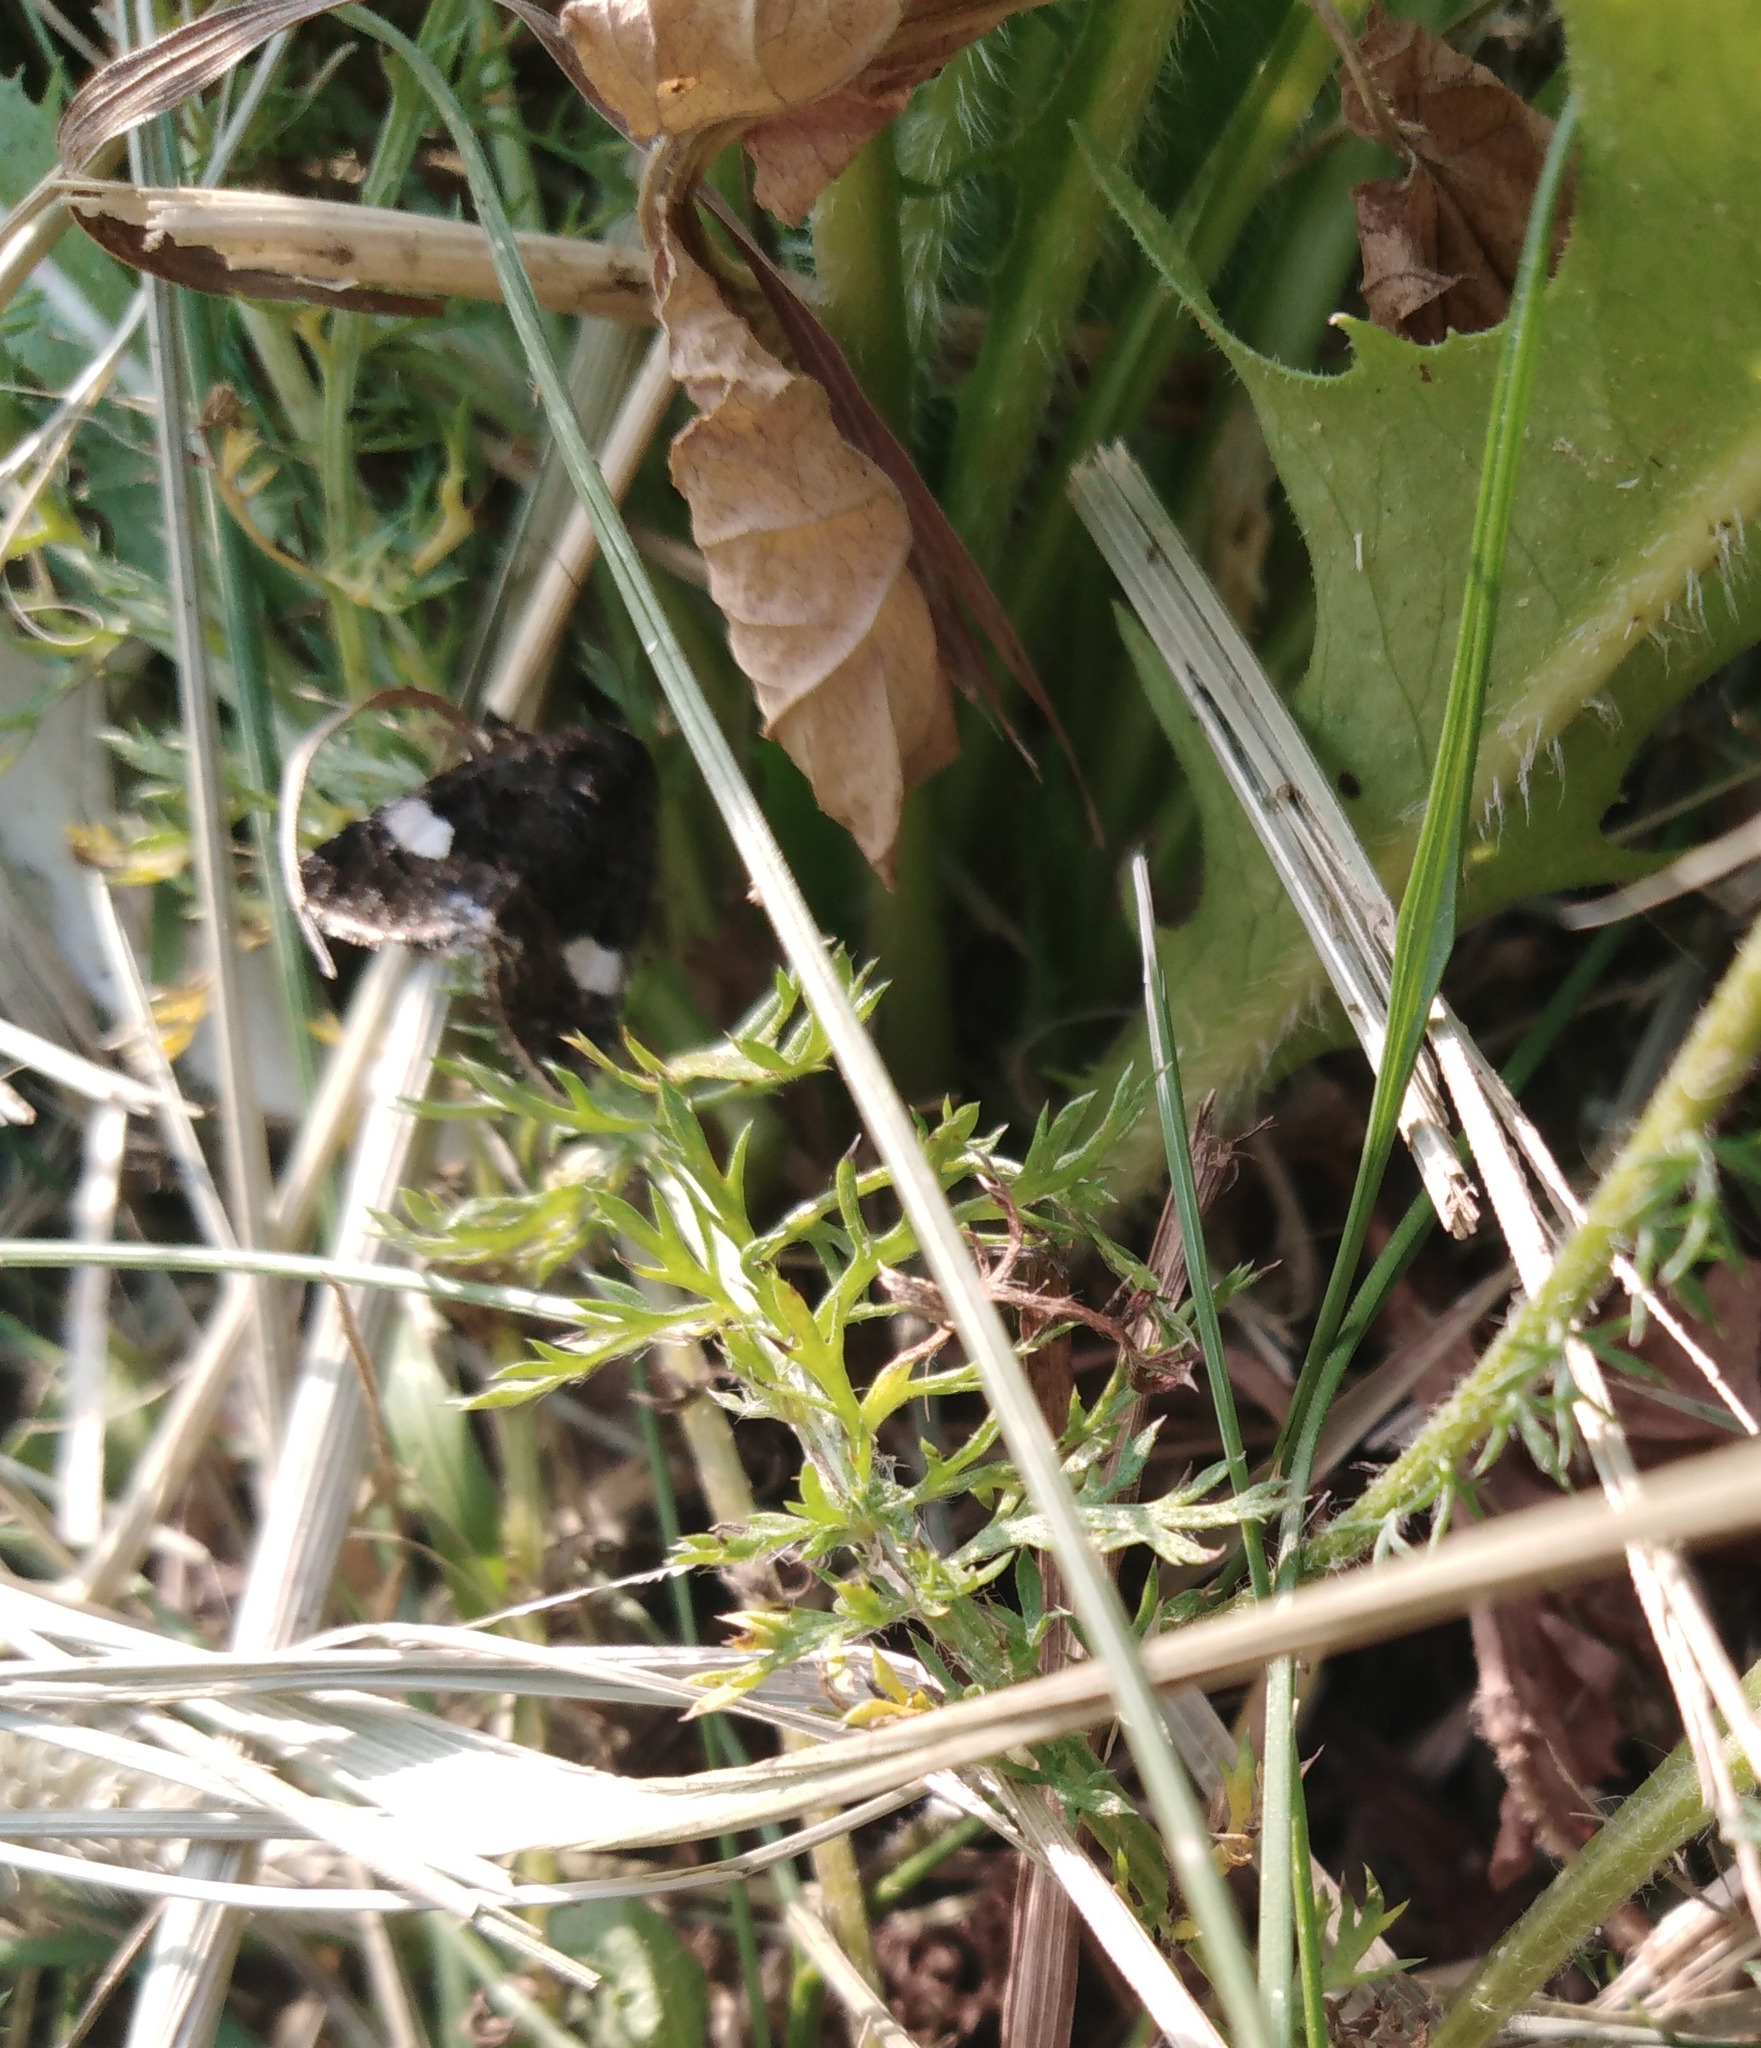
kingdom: Animalia
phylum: Arthropoda
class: Insecta
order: Lepidoptera
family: Erebidae
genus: Tyta
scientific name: Tyta luctuosa
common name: Four-spotted
